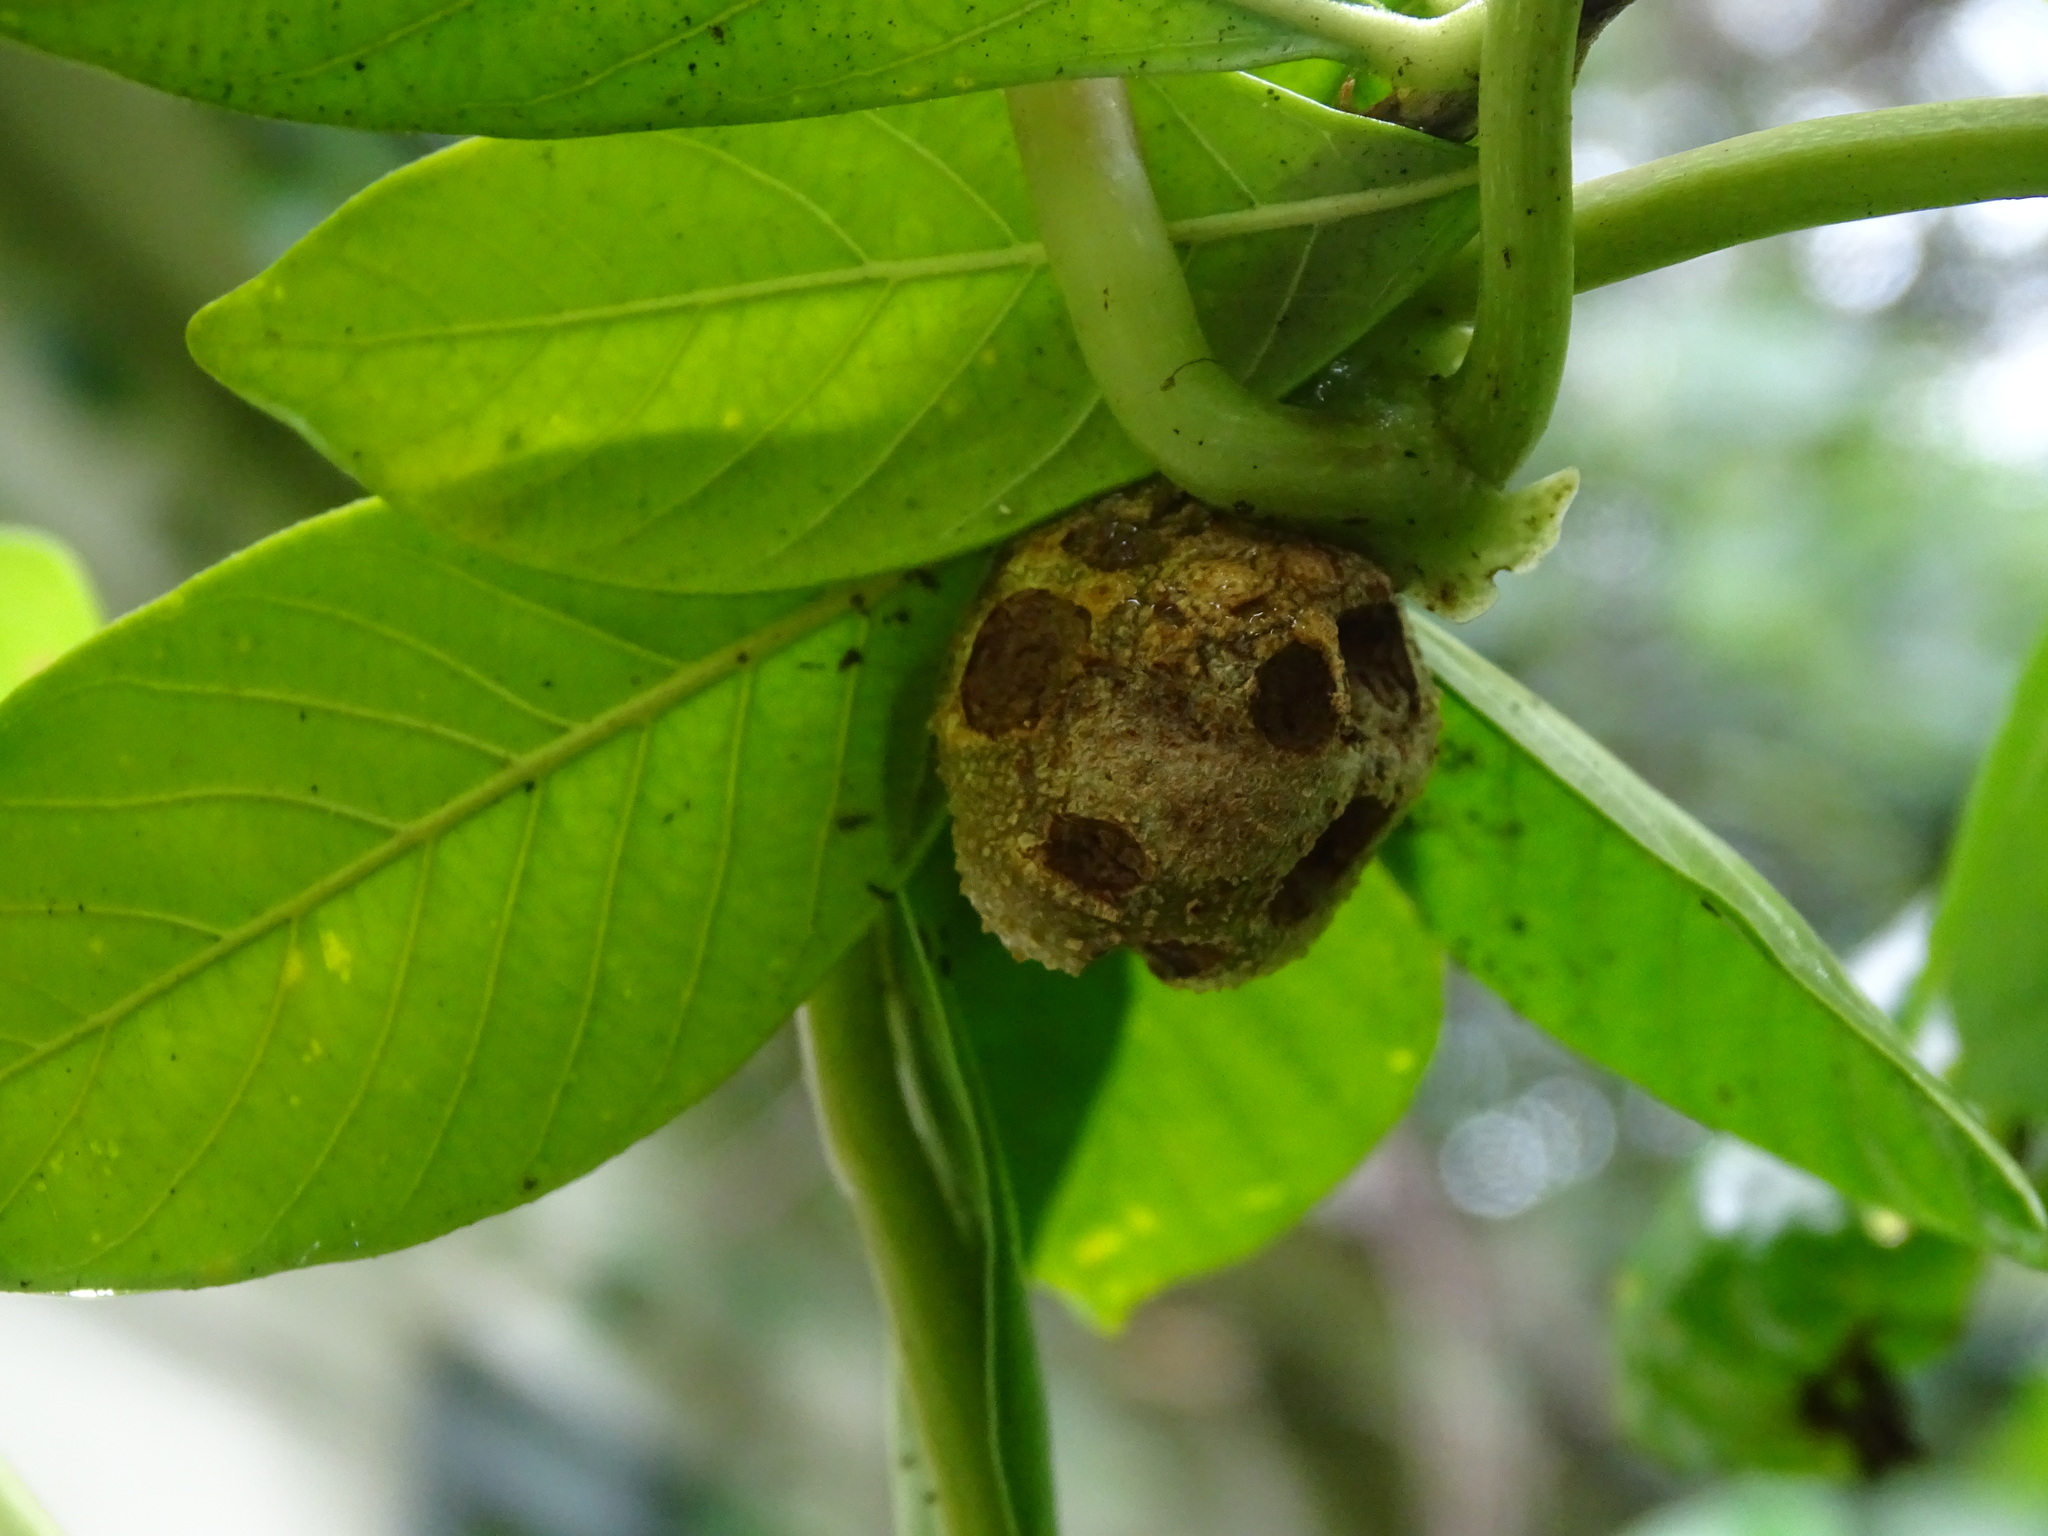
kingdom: Plantae
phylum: Tracheophyta
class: Liliopsida
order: Dioscoreales
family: Dioscoreaceae
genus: Dioscorea
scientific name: Dioscorea bulbifera
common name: Air yam
